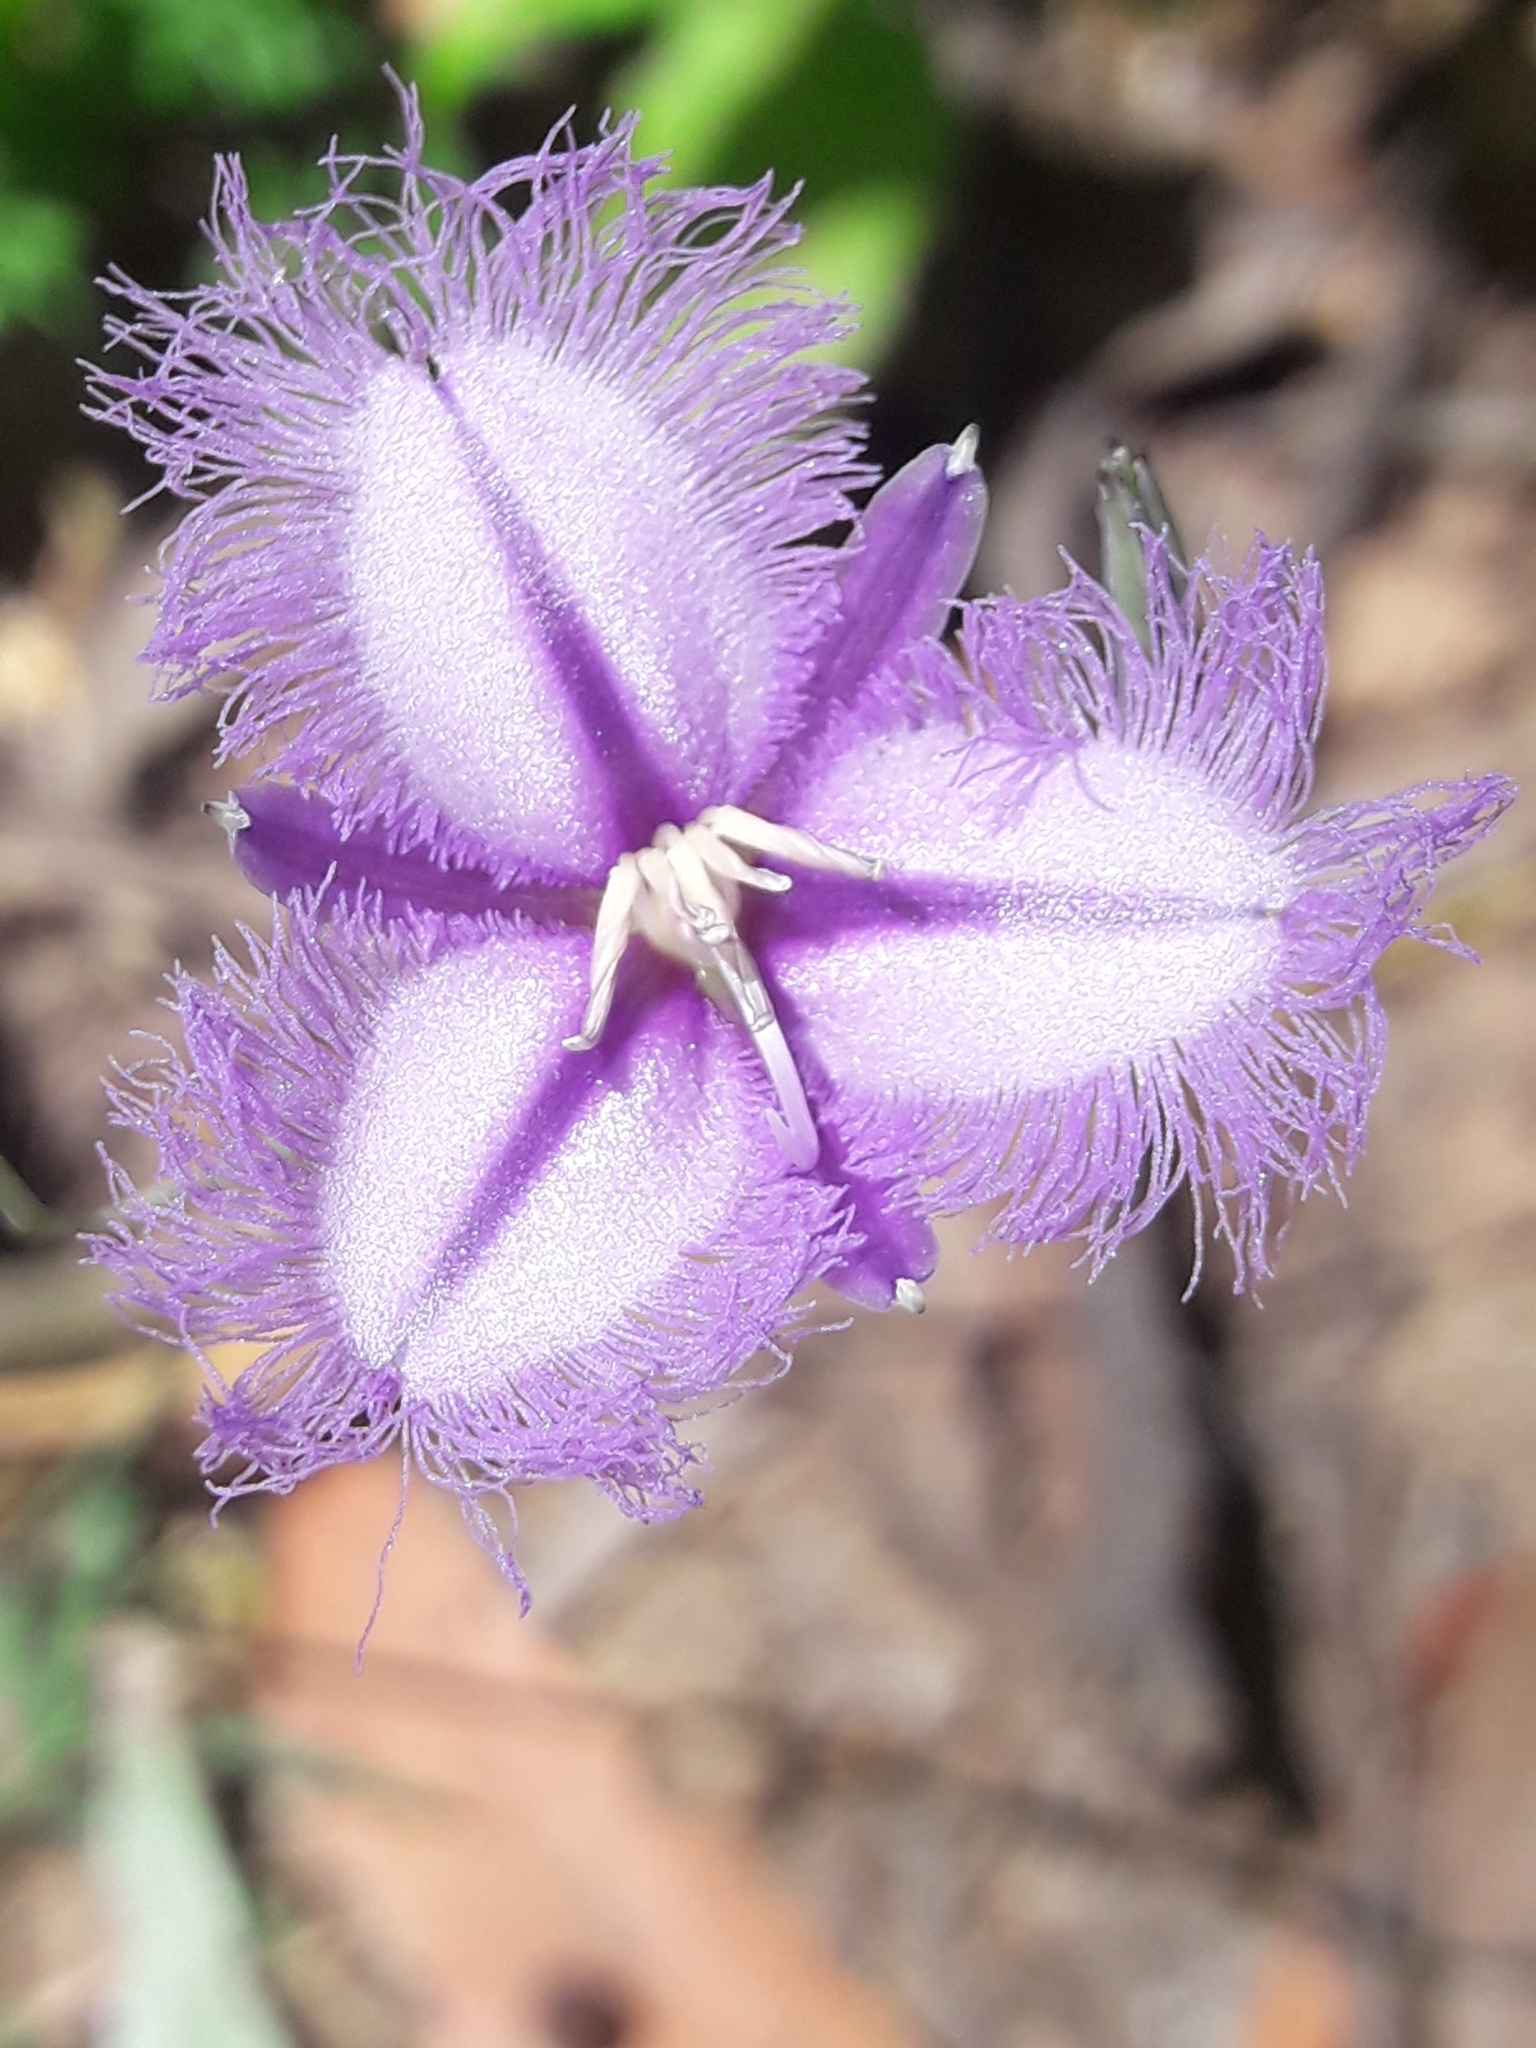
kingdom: Plantae
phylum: Tracheophyta
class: Liliopsida
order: Asparagales
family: Asparagaceae
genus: Thysanotus
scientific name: Thysanotus tuberosus
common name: Common fringed-lily
